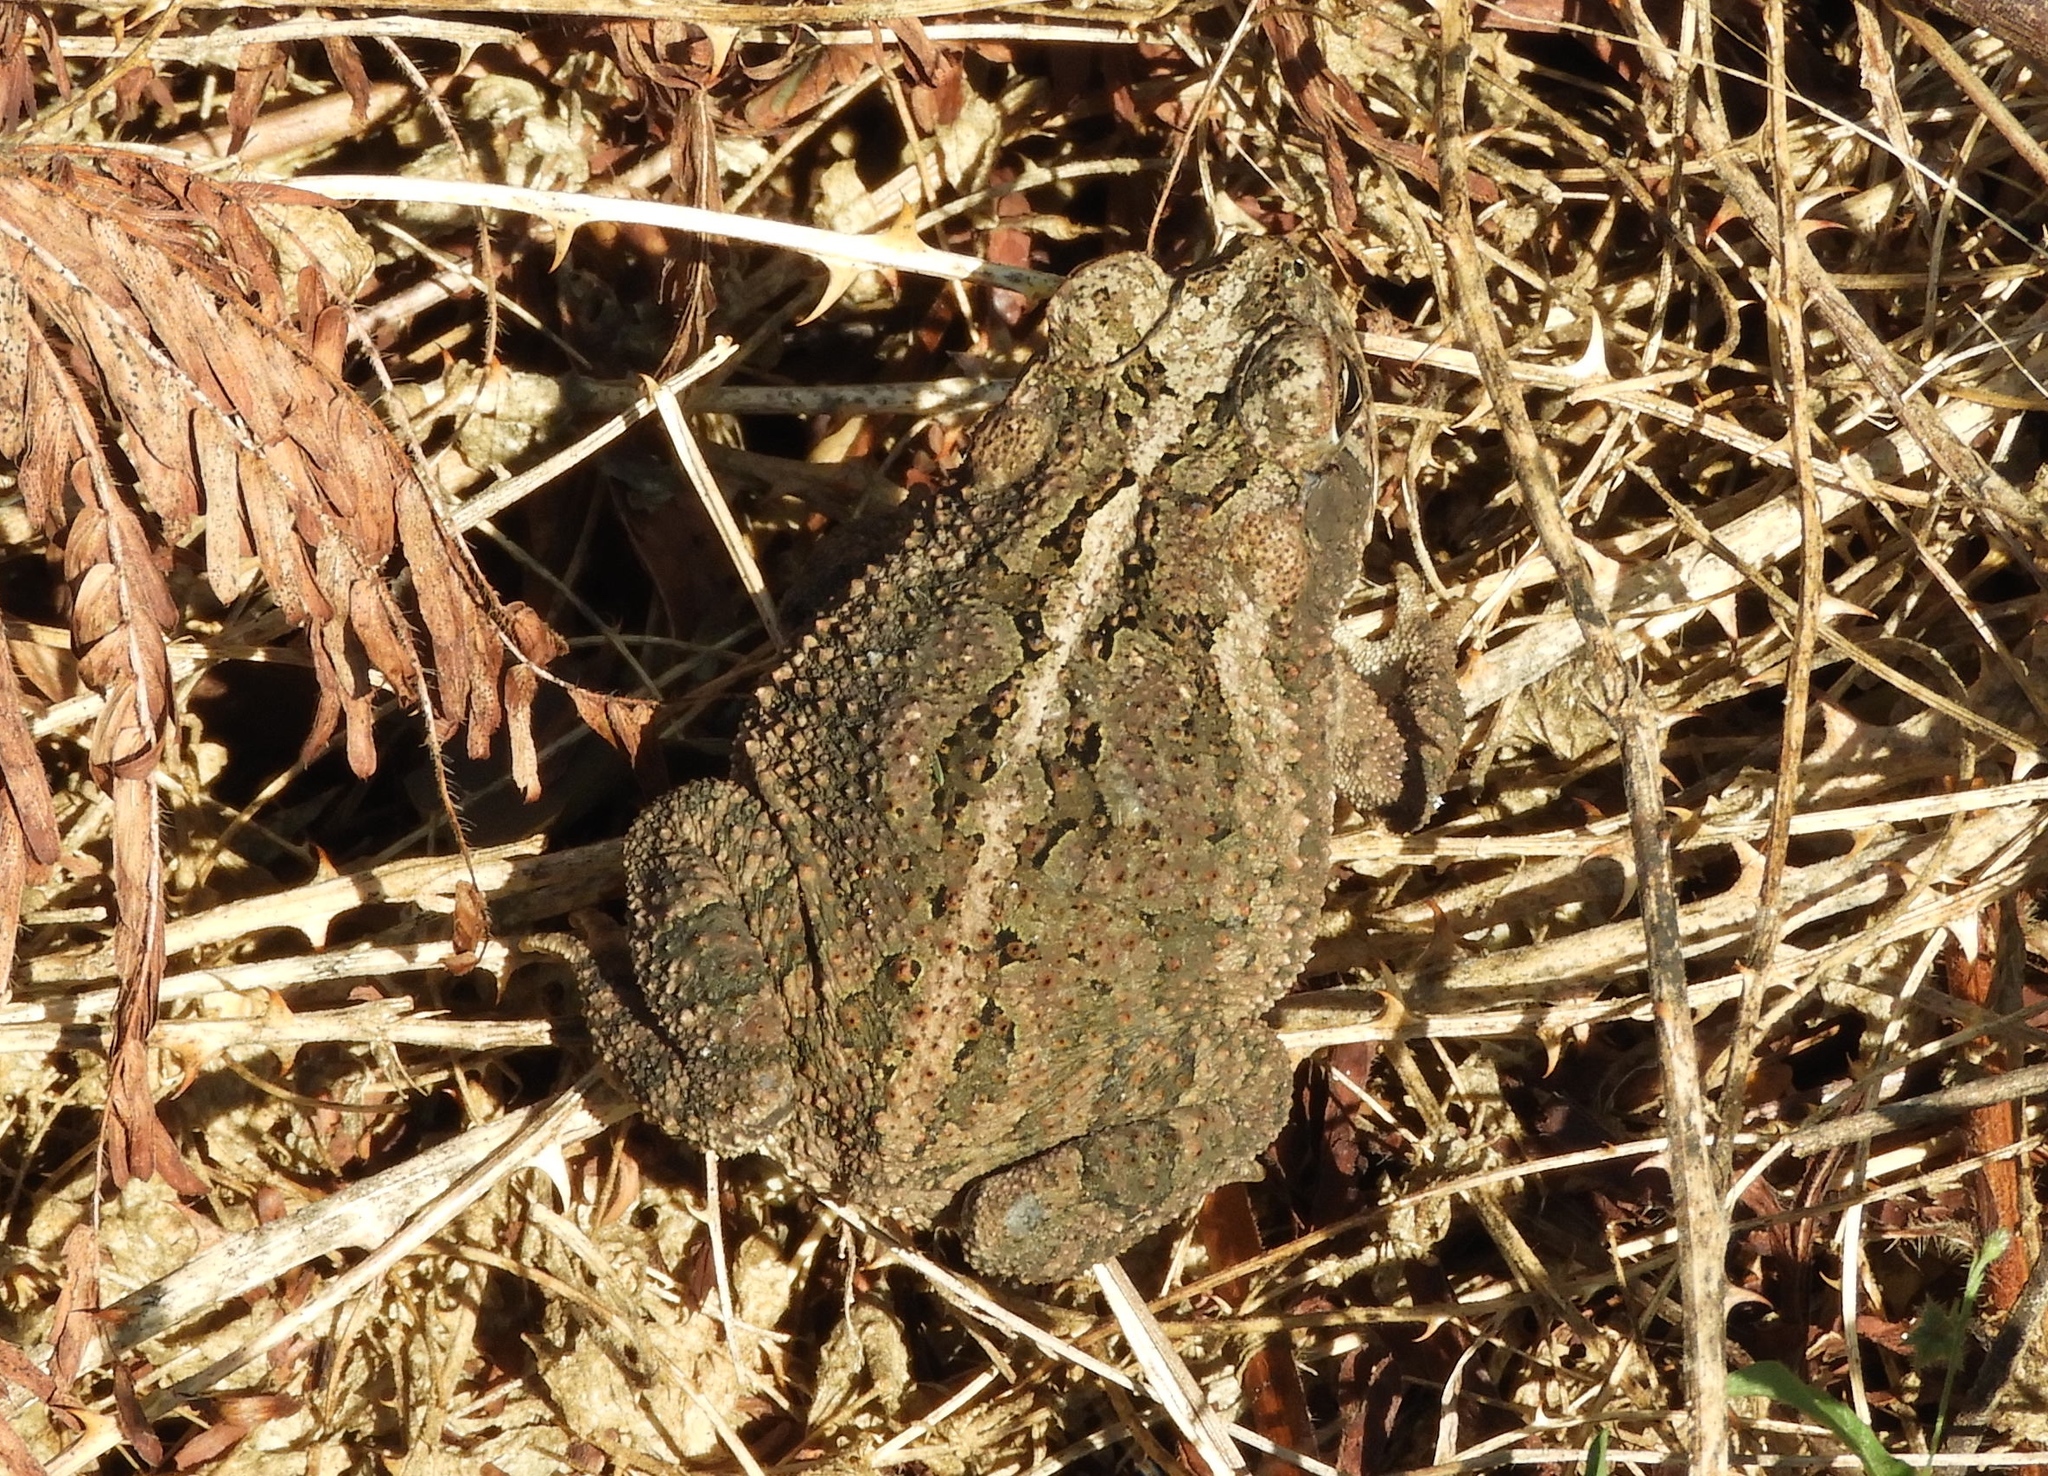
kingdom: Animalia
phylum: Chordata
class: Amphibia
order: Anura
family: Bufonidae
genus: Incilius
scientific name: Incilius mazatlanensis
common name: Sinaloa toad
